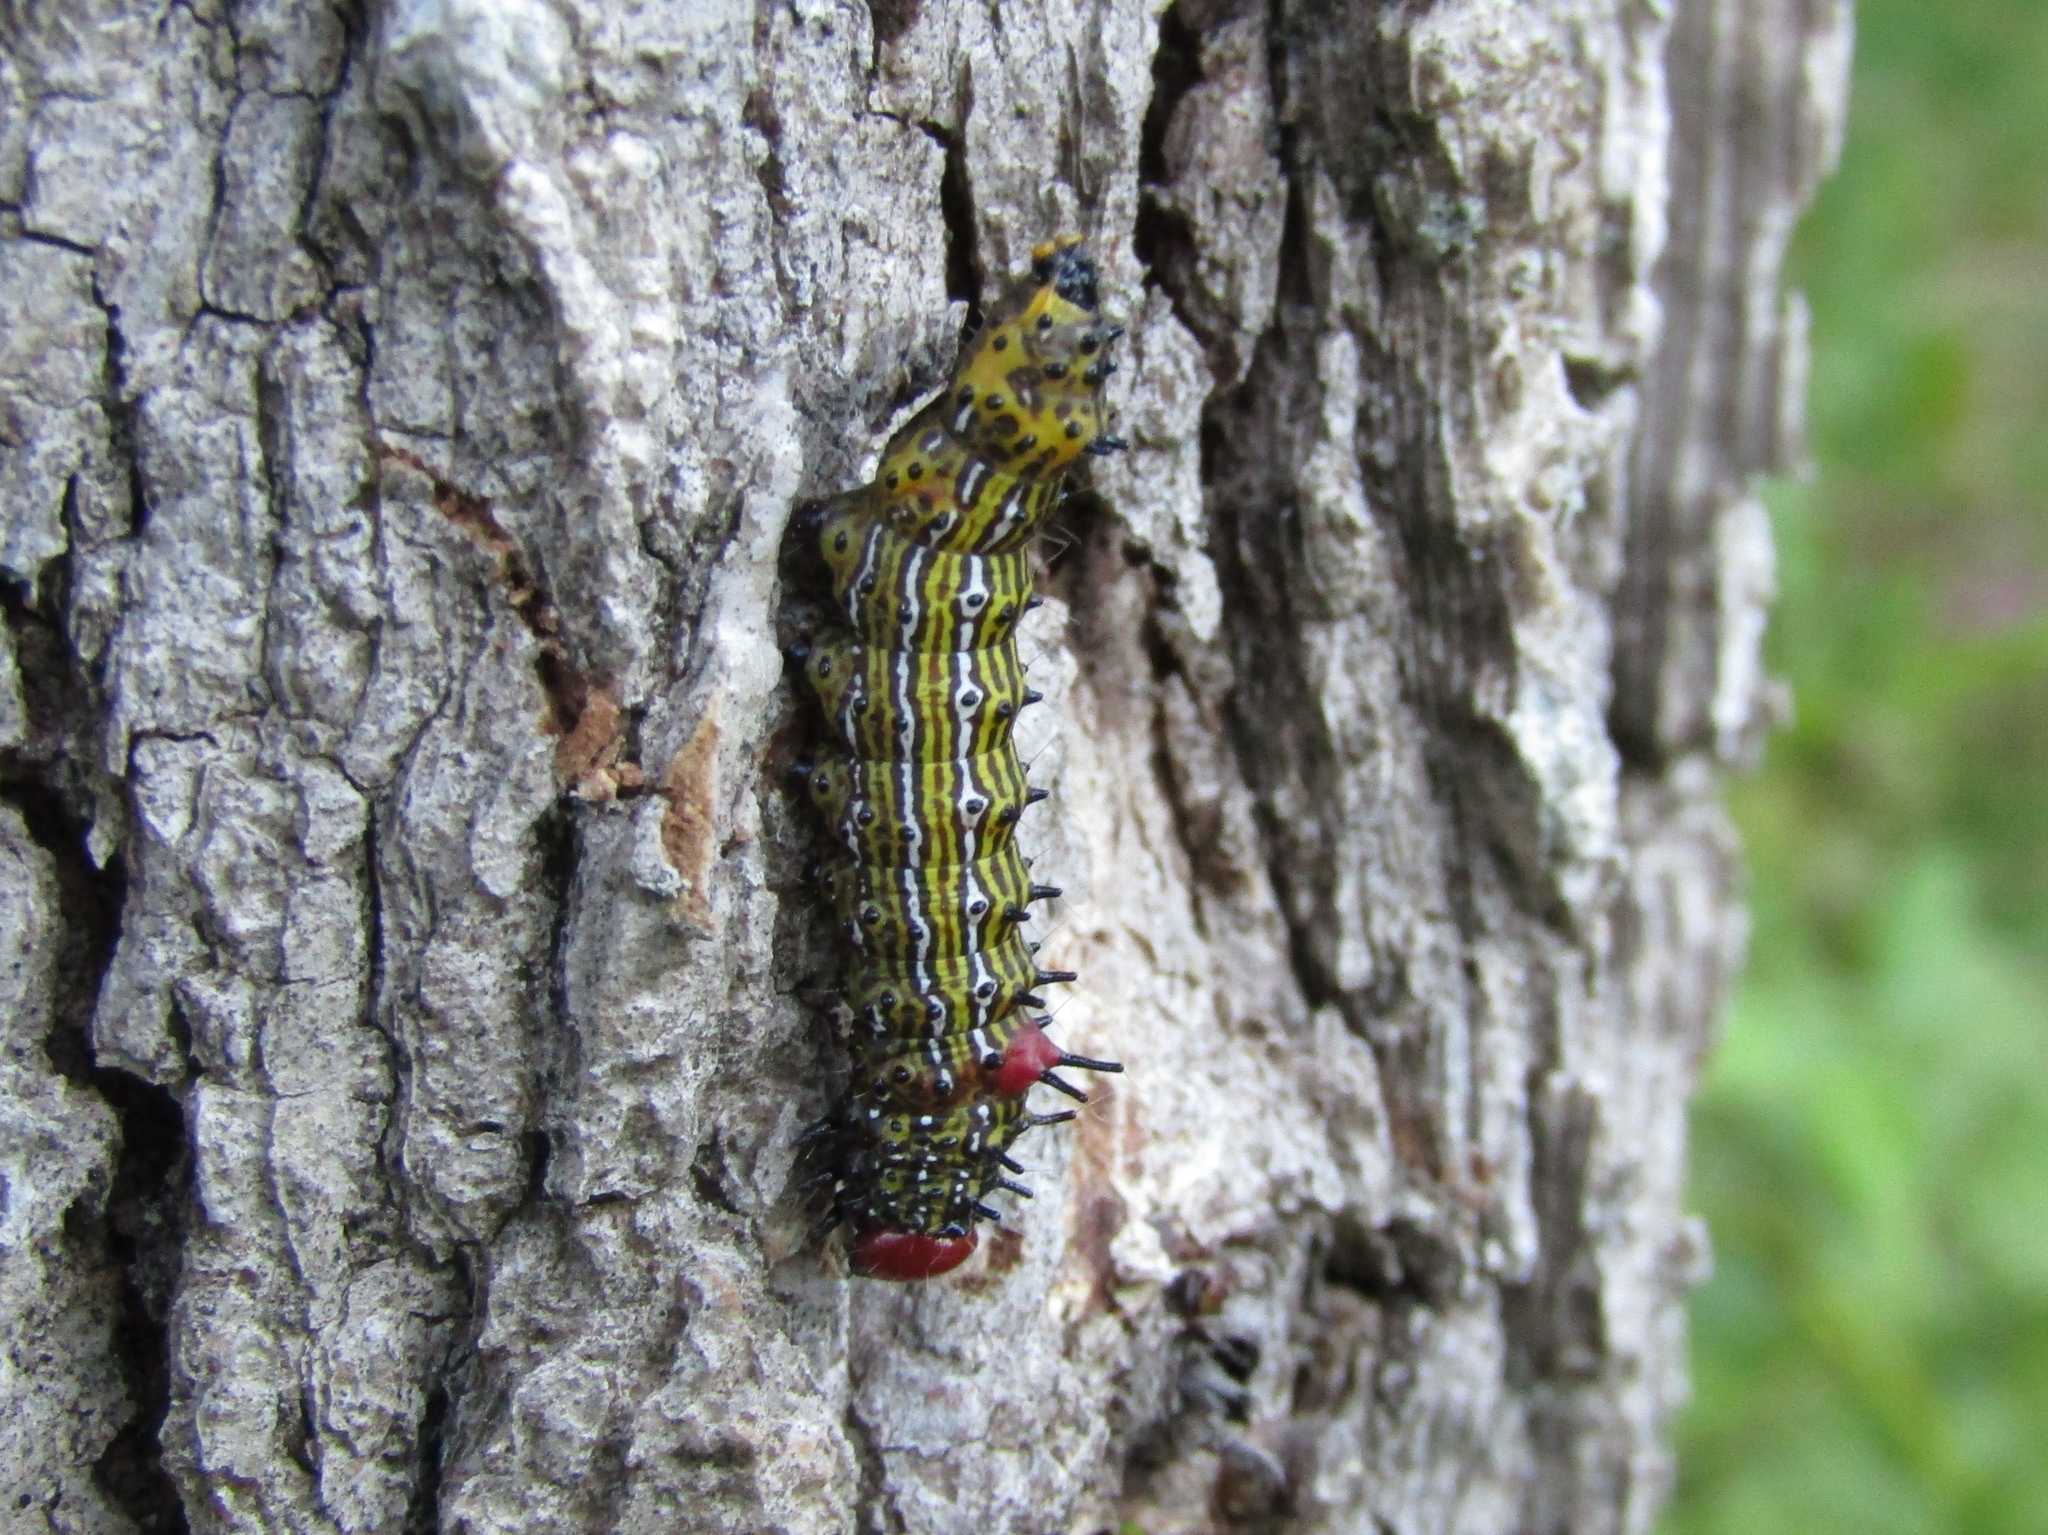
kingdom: Animalia
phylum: Arthropoda
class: Insecta
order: Lepidoptera
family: Notodontidae
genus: Schizura
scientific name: Schizura
